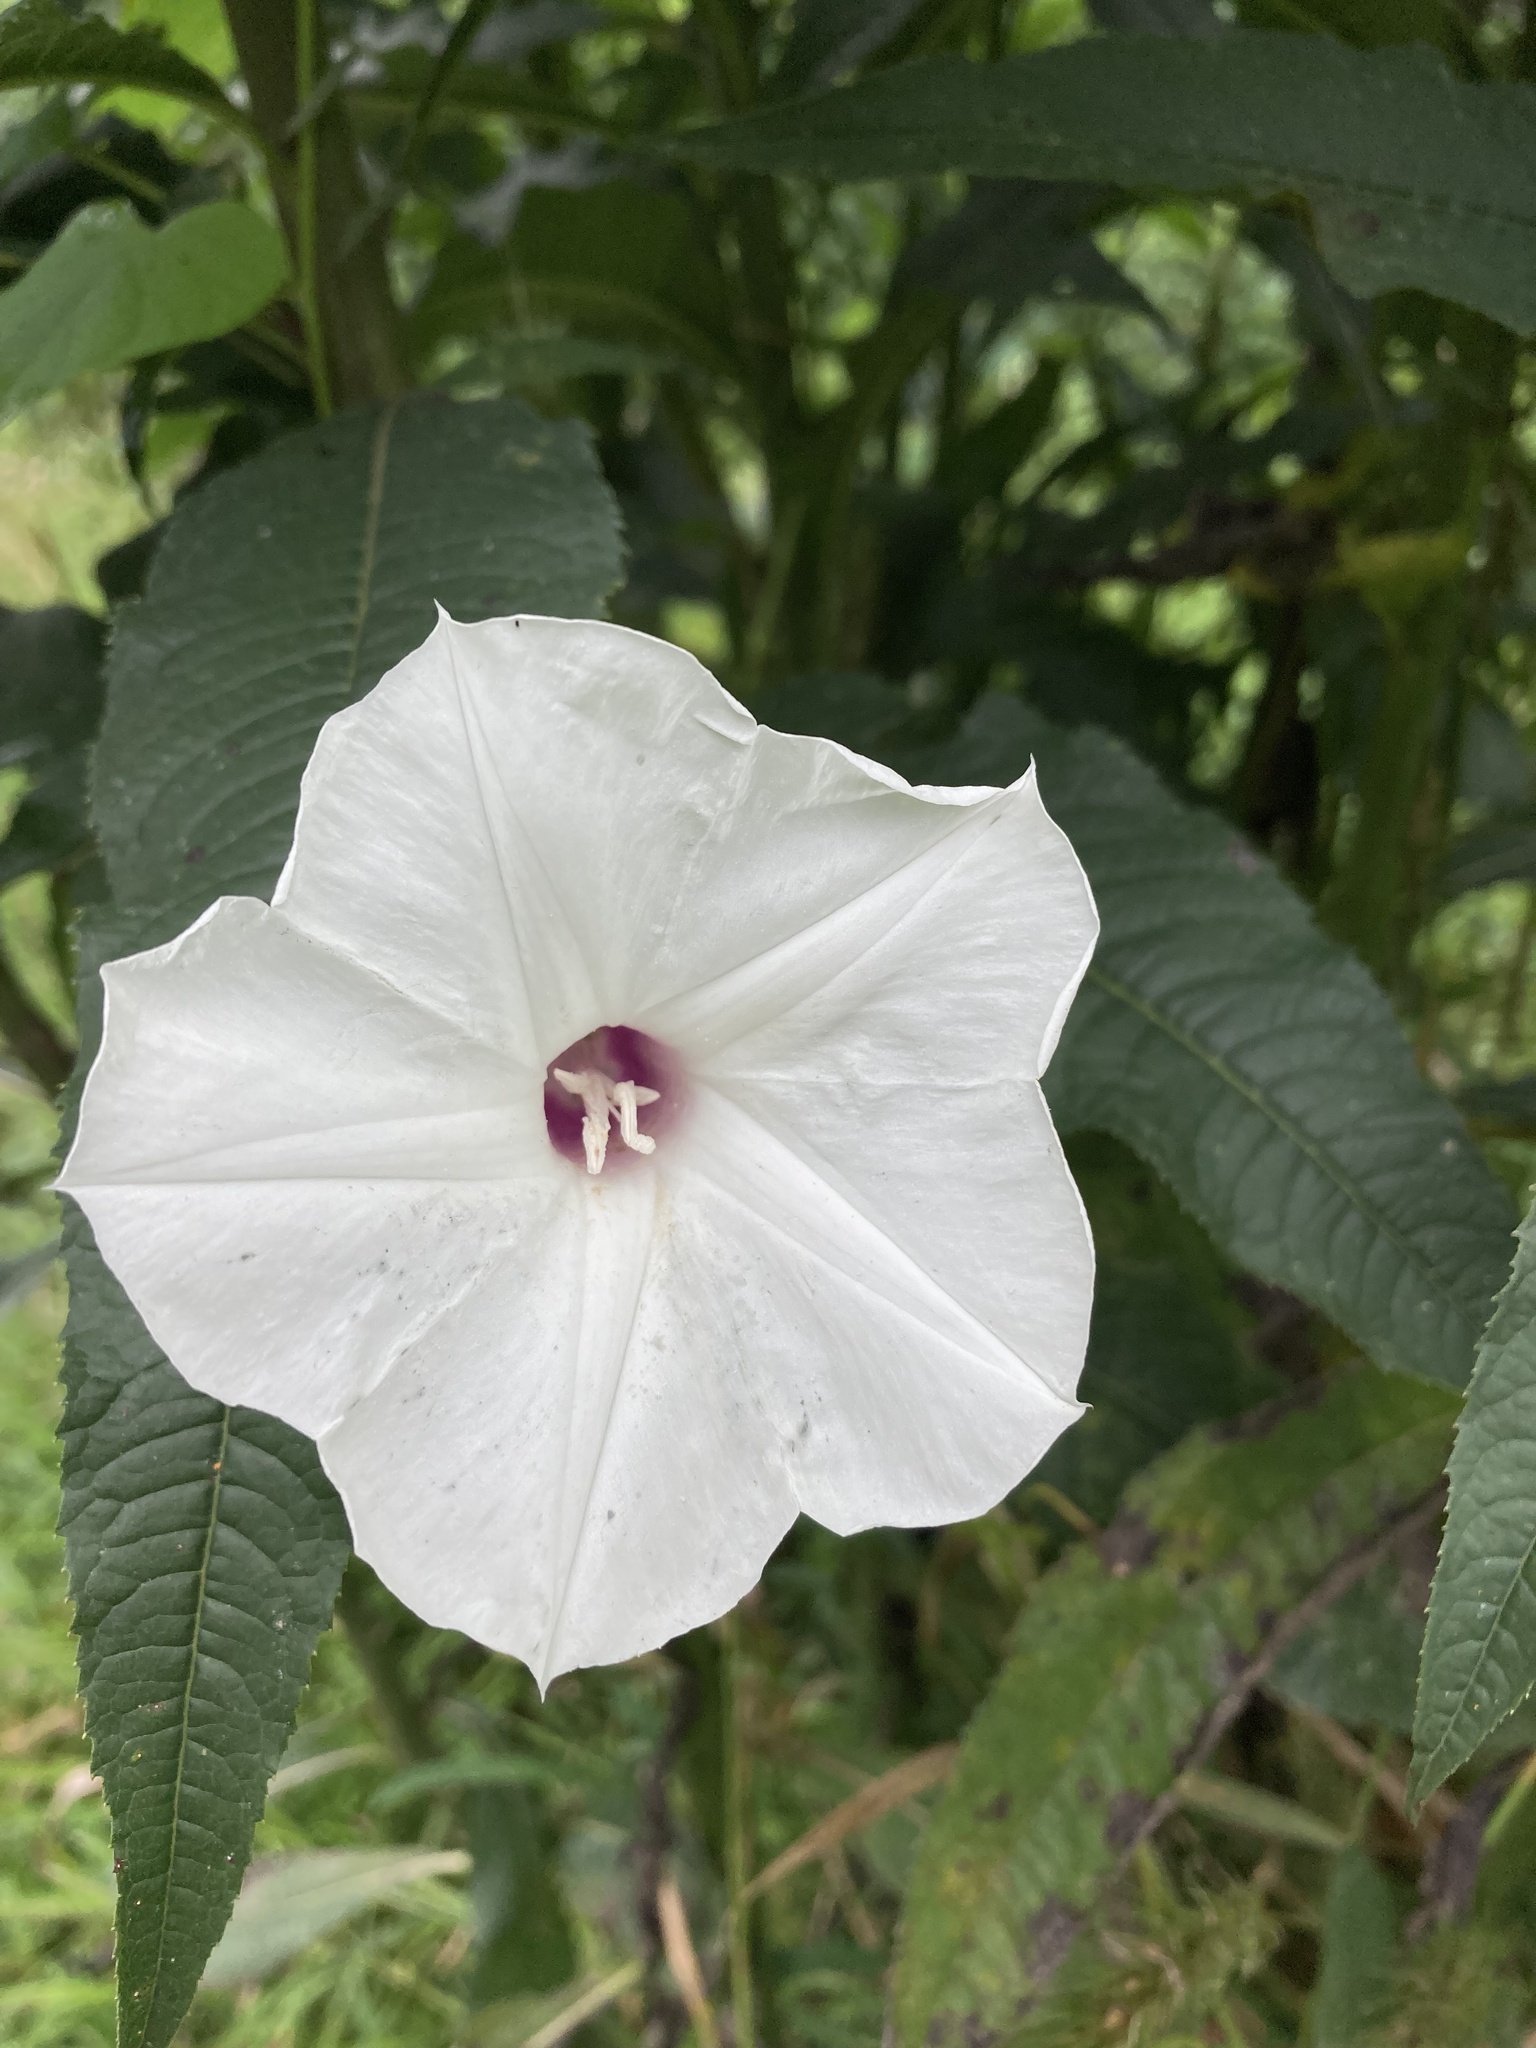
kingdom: Plantae
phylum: Tracheophyta
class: Magnoliopsida
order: Solanales
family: Convolvulaceae
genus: Ipomoea
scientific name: Ipomoea pandurata
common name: Man-of-the-earth
